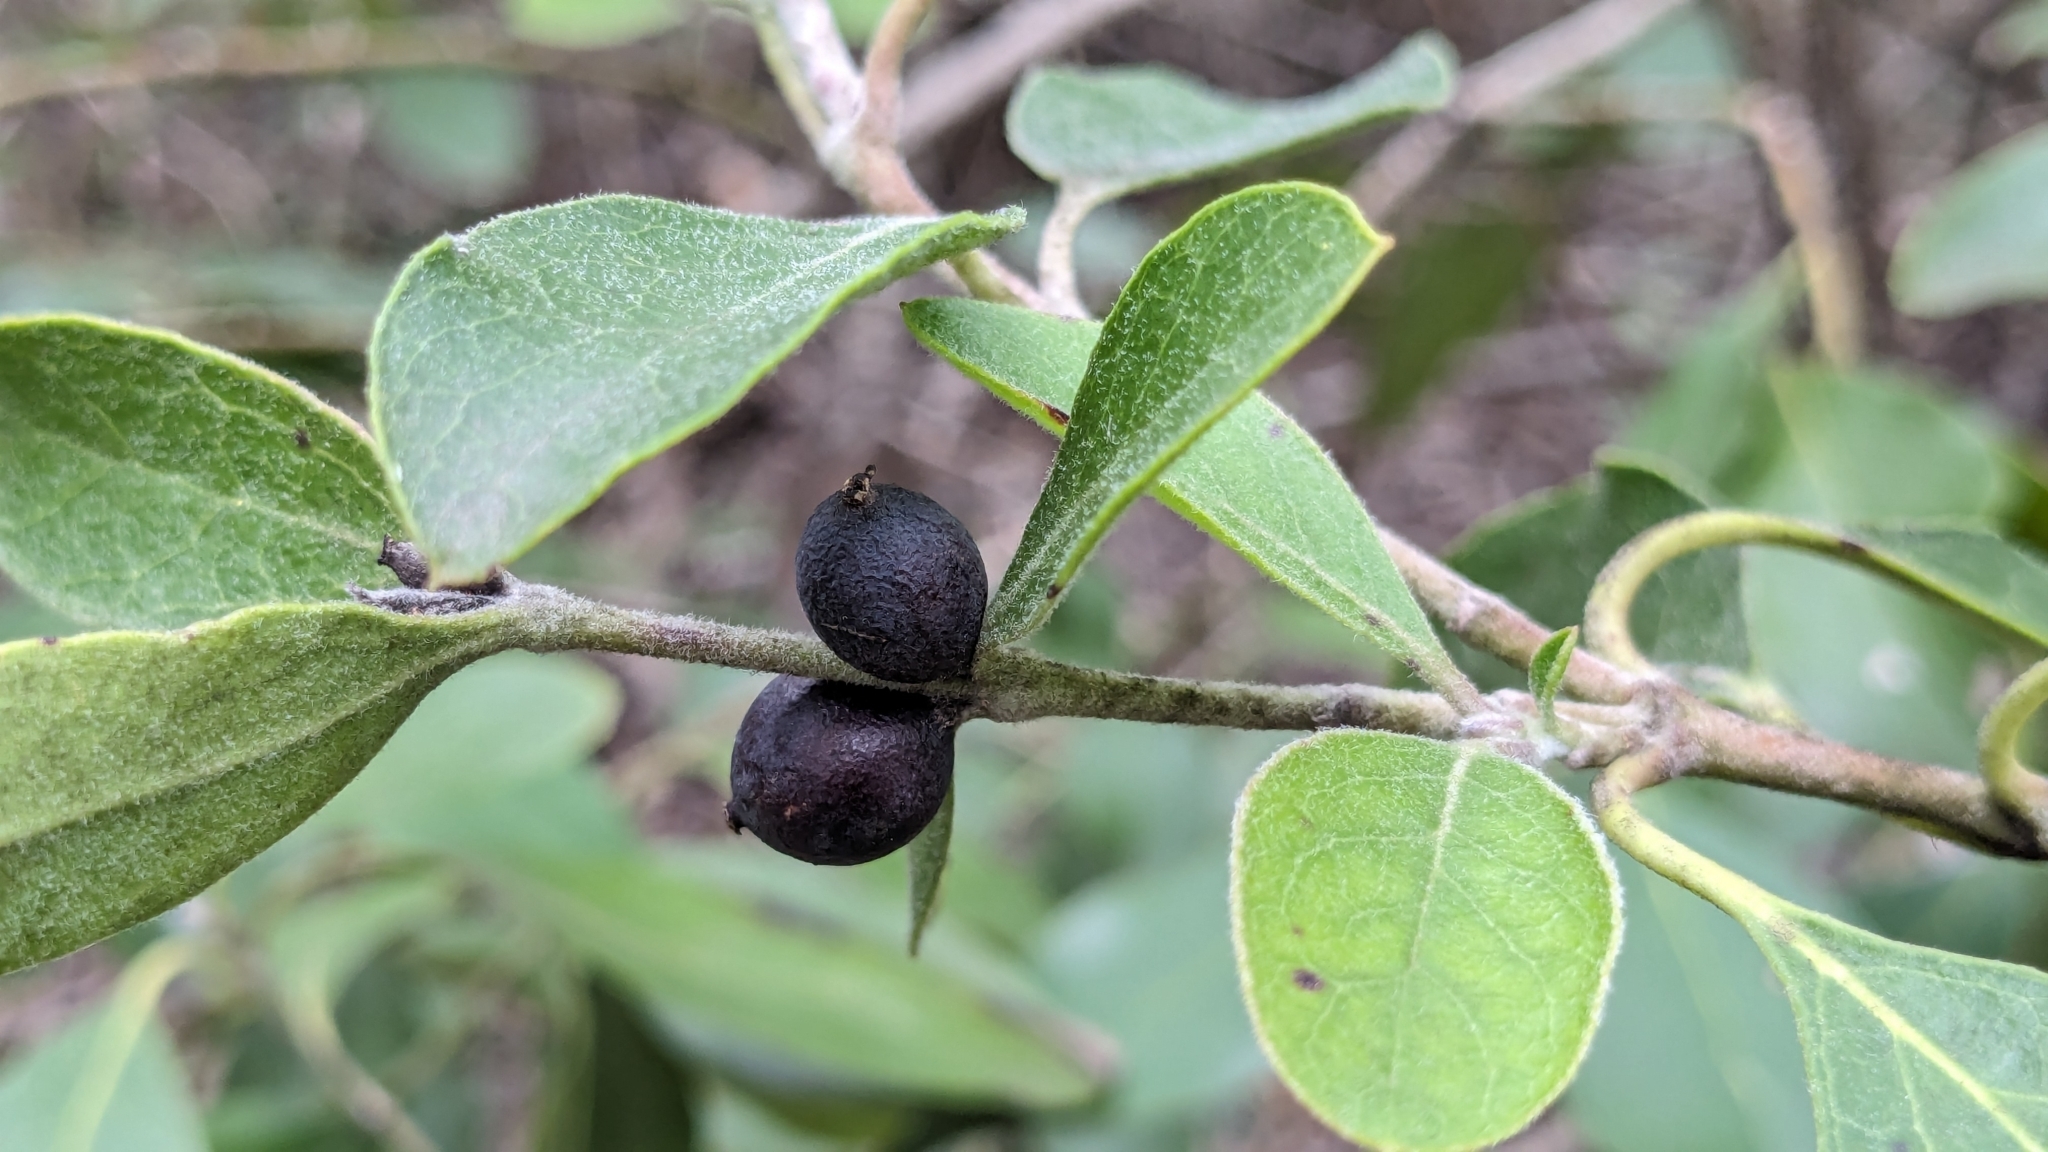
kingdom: Plantae
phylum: Tracheophyta
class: Magnoliopsida
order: Garryales
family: Garryaceae
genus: Garrya
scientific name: Garrya lindheimeri
